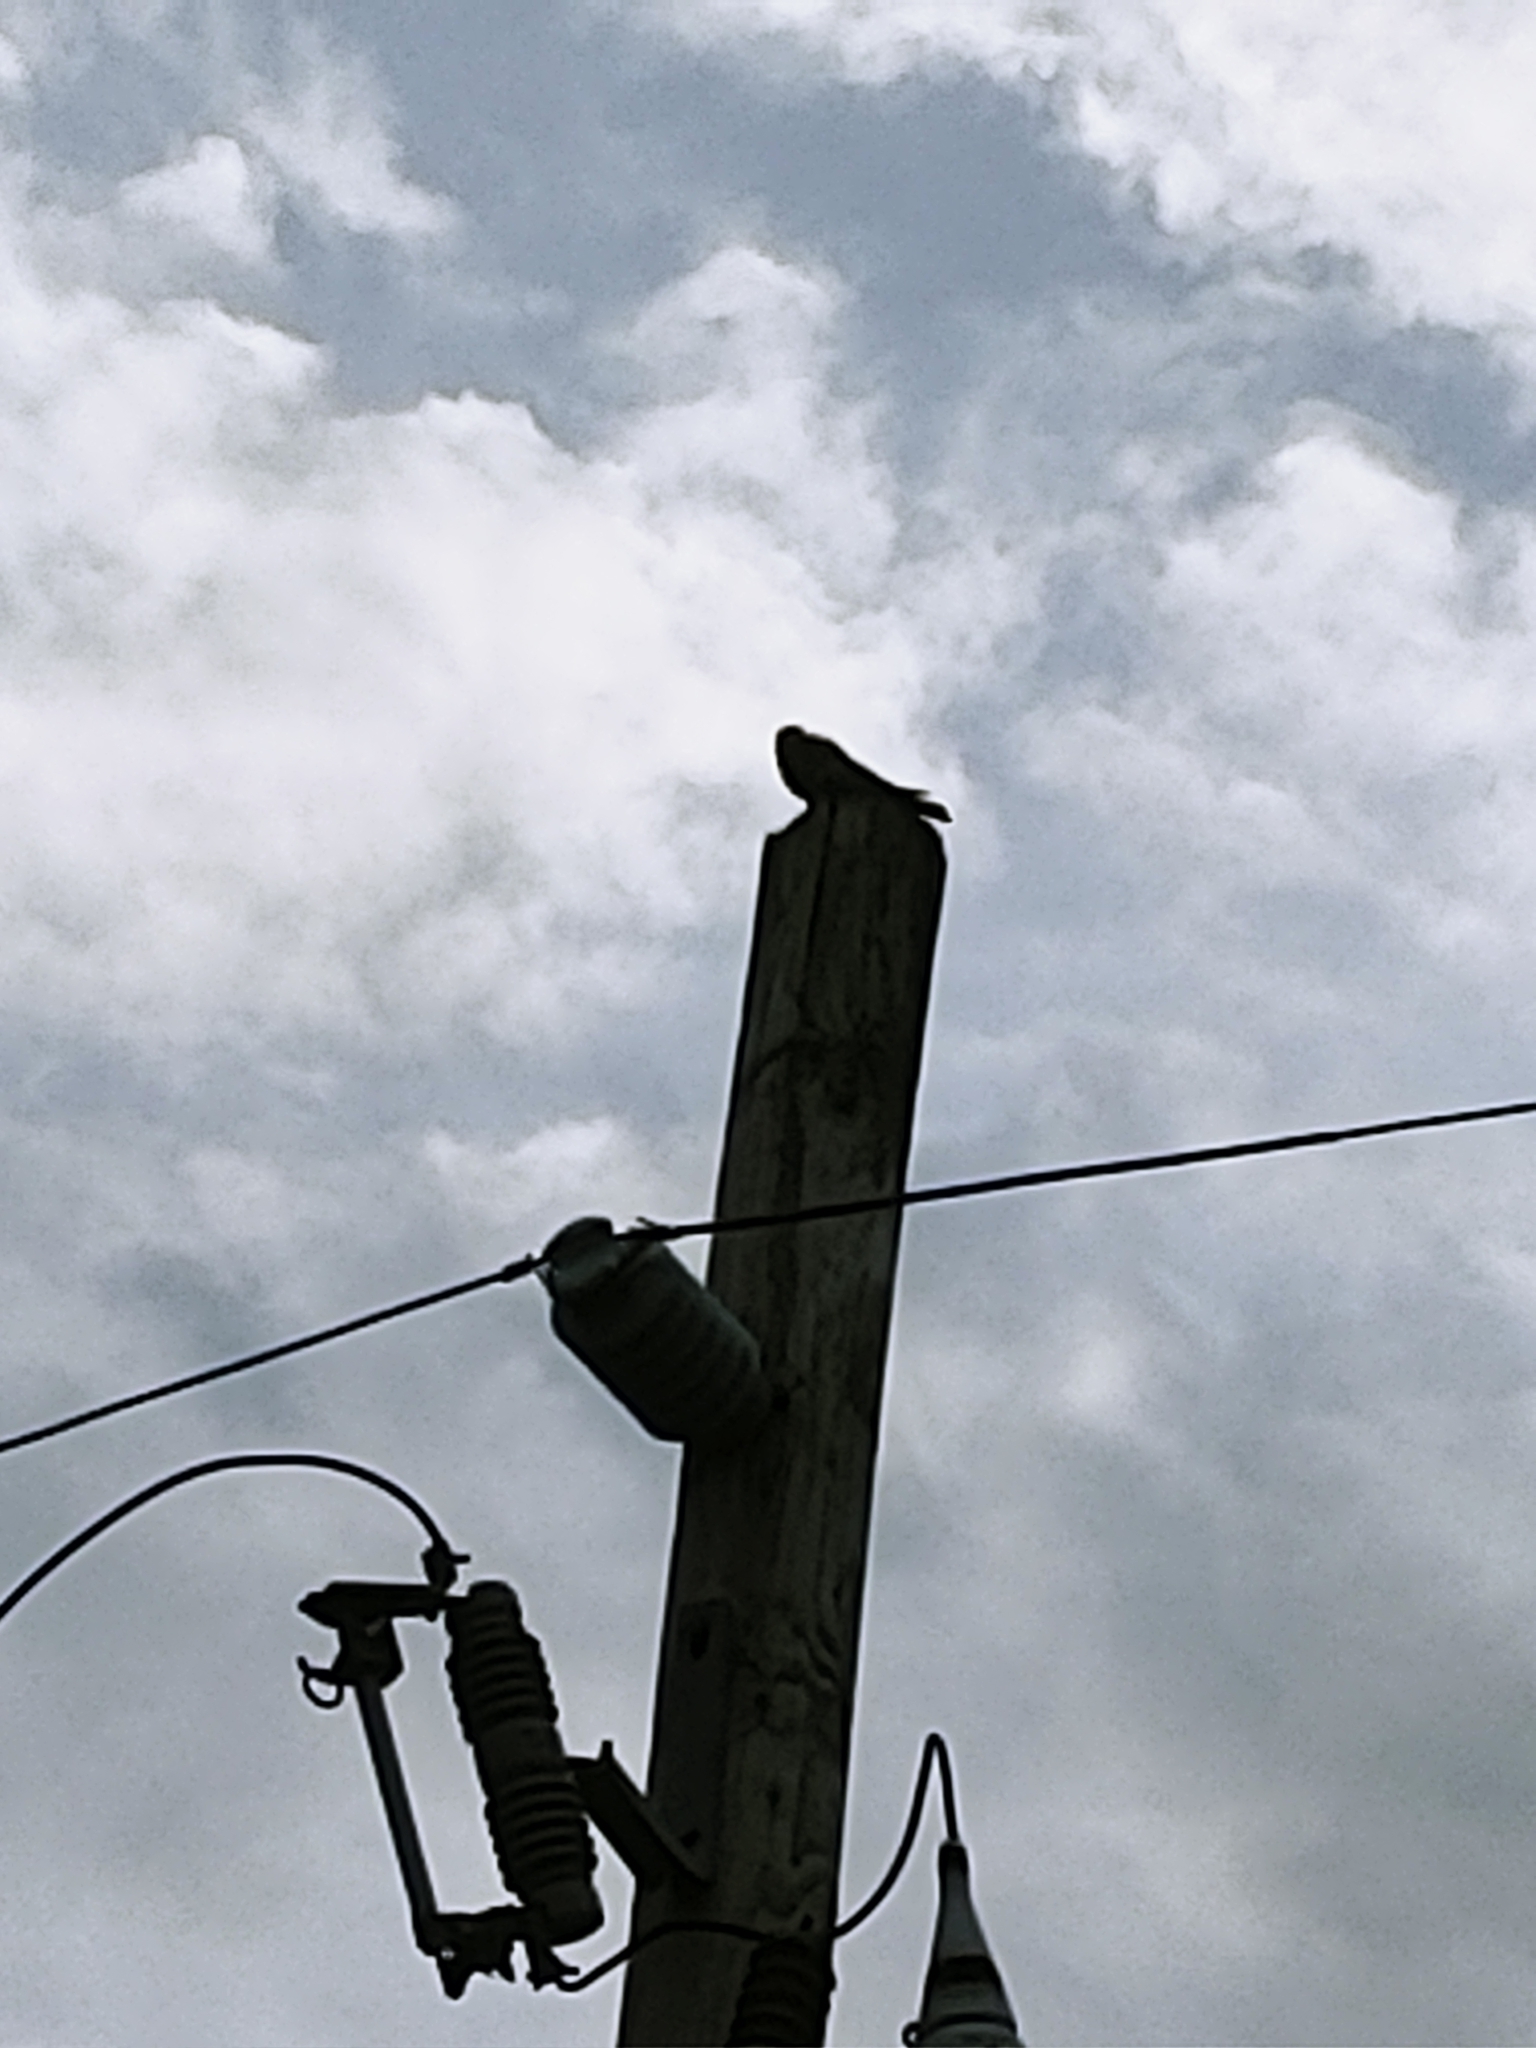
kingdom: Animalia
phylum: Chordata
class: Aves
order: Falconiformes
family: Falconidae
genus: Falco
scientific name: Falco sparverius
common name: American kestrel
